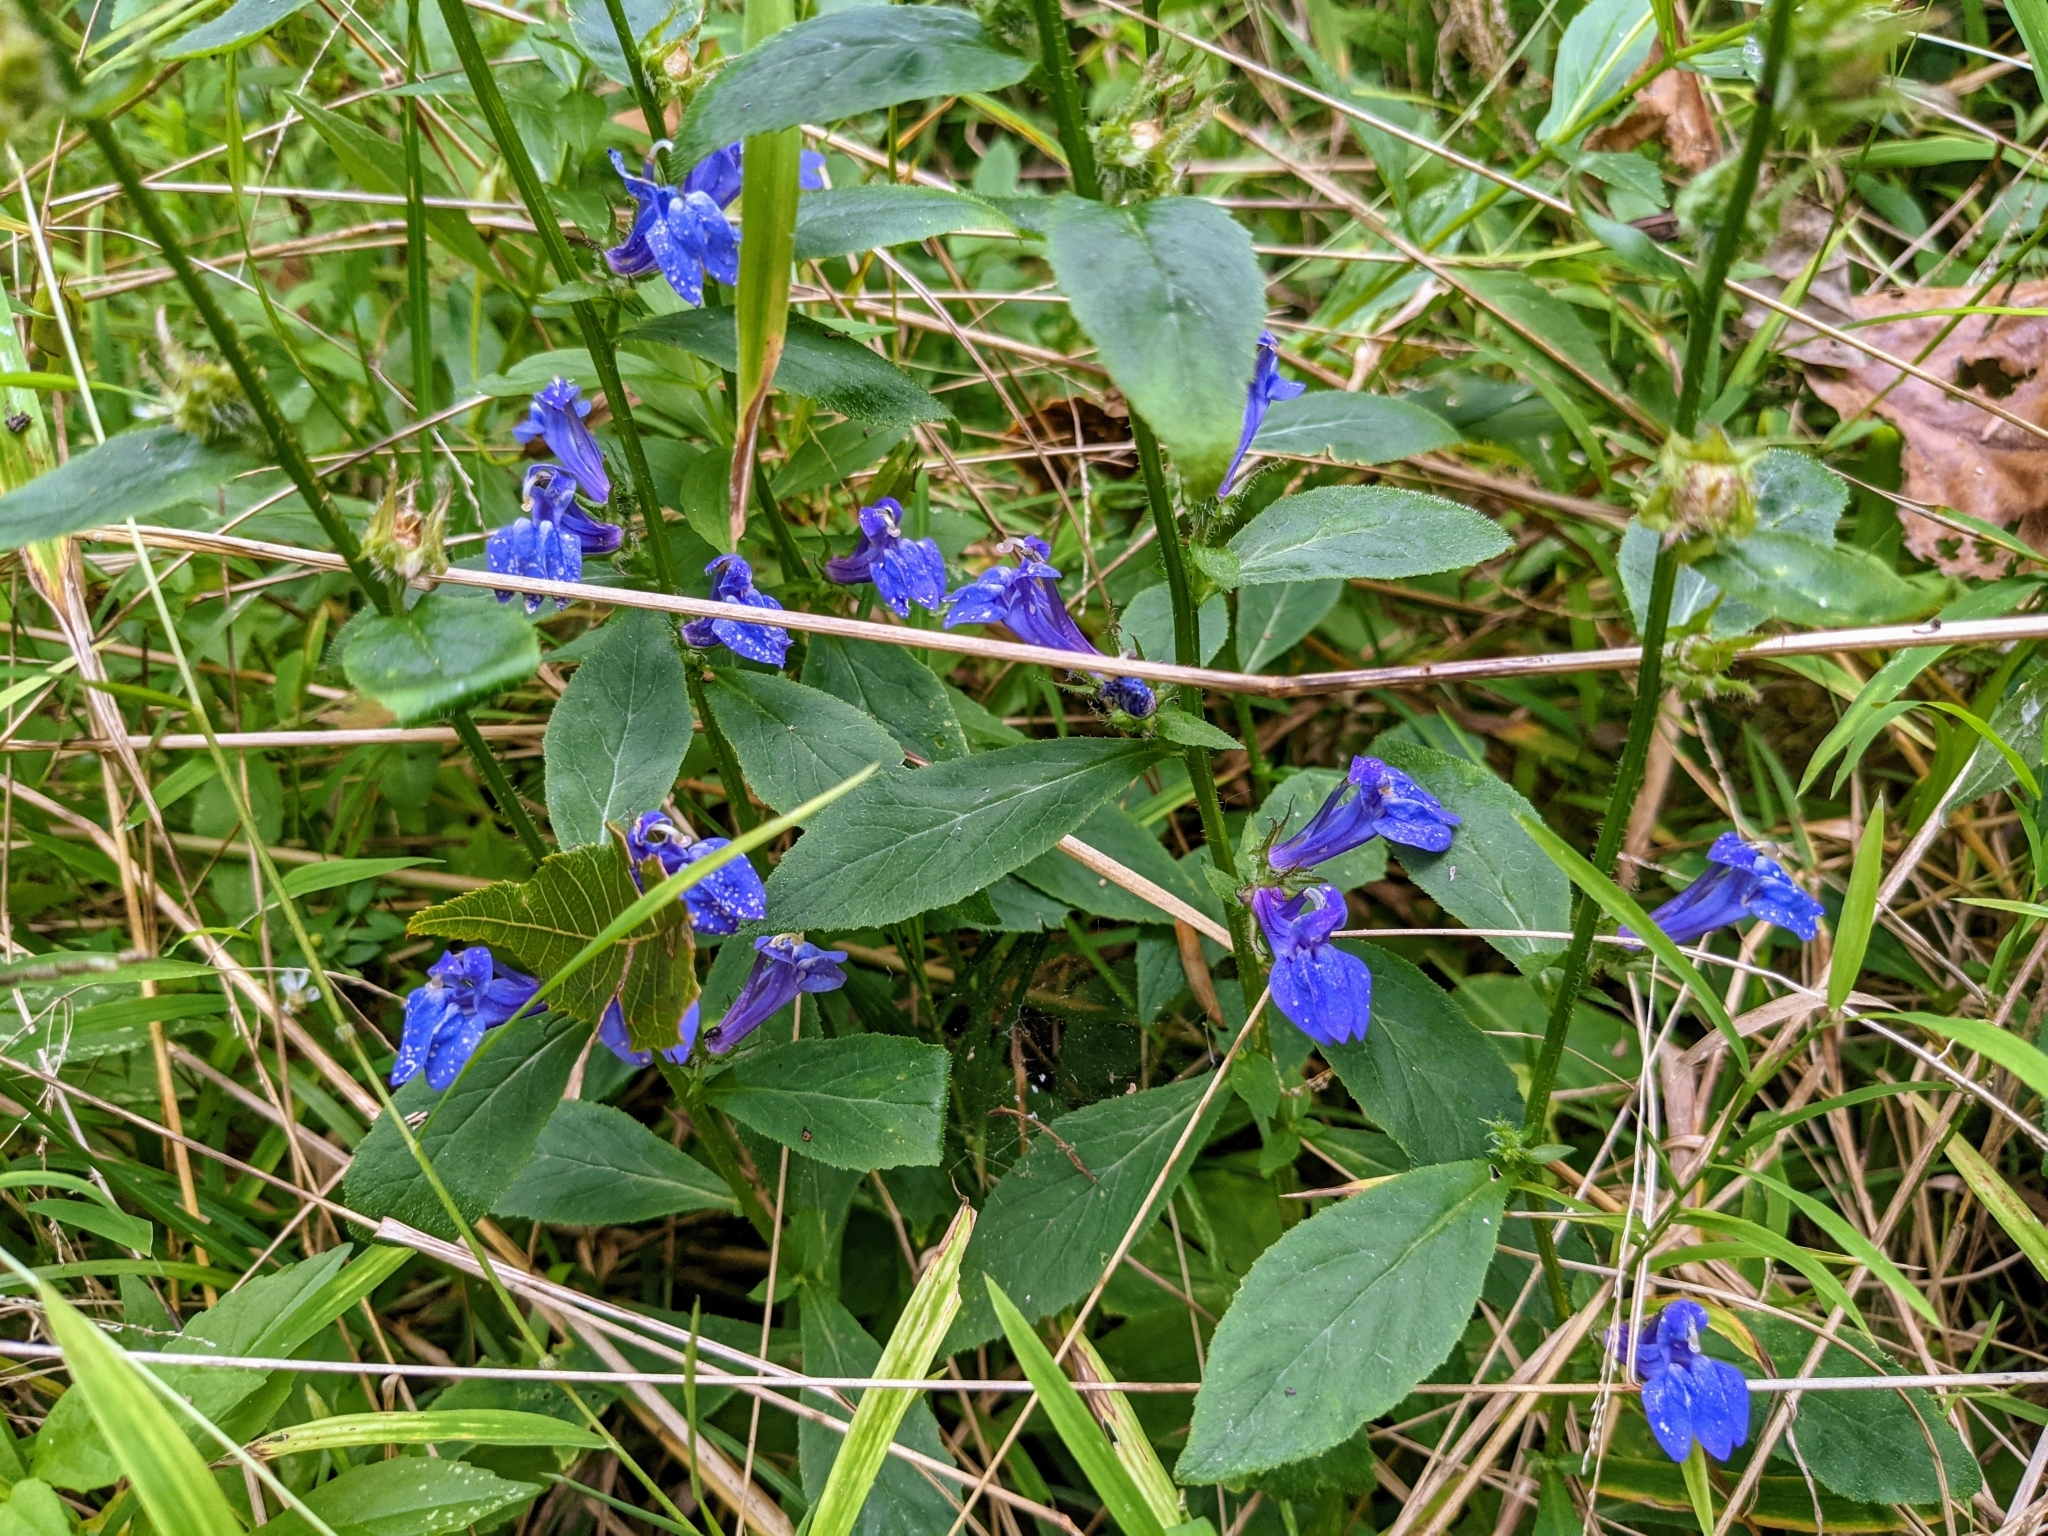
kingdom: Plantae
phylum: Tracheophyta
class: Magnoliopsida
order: Asterales
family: Campanulaceae
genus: Lobelia
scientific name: Lobelia siphilitica
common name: Great lobelia
